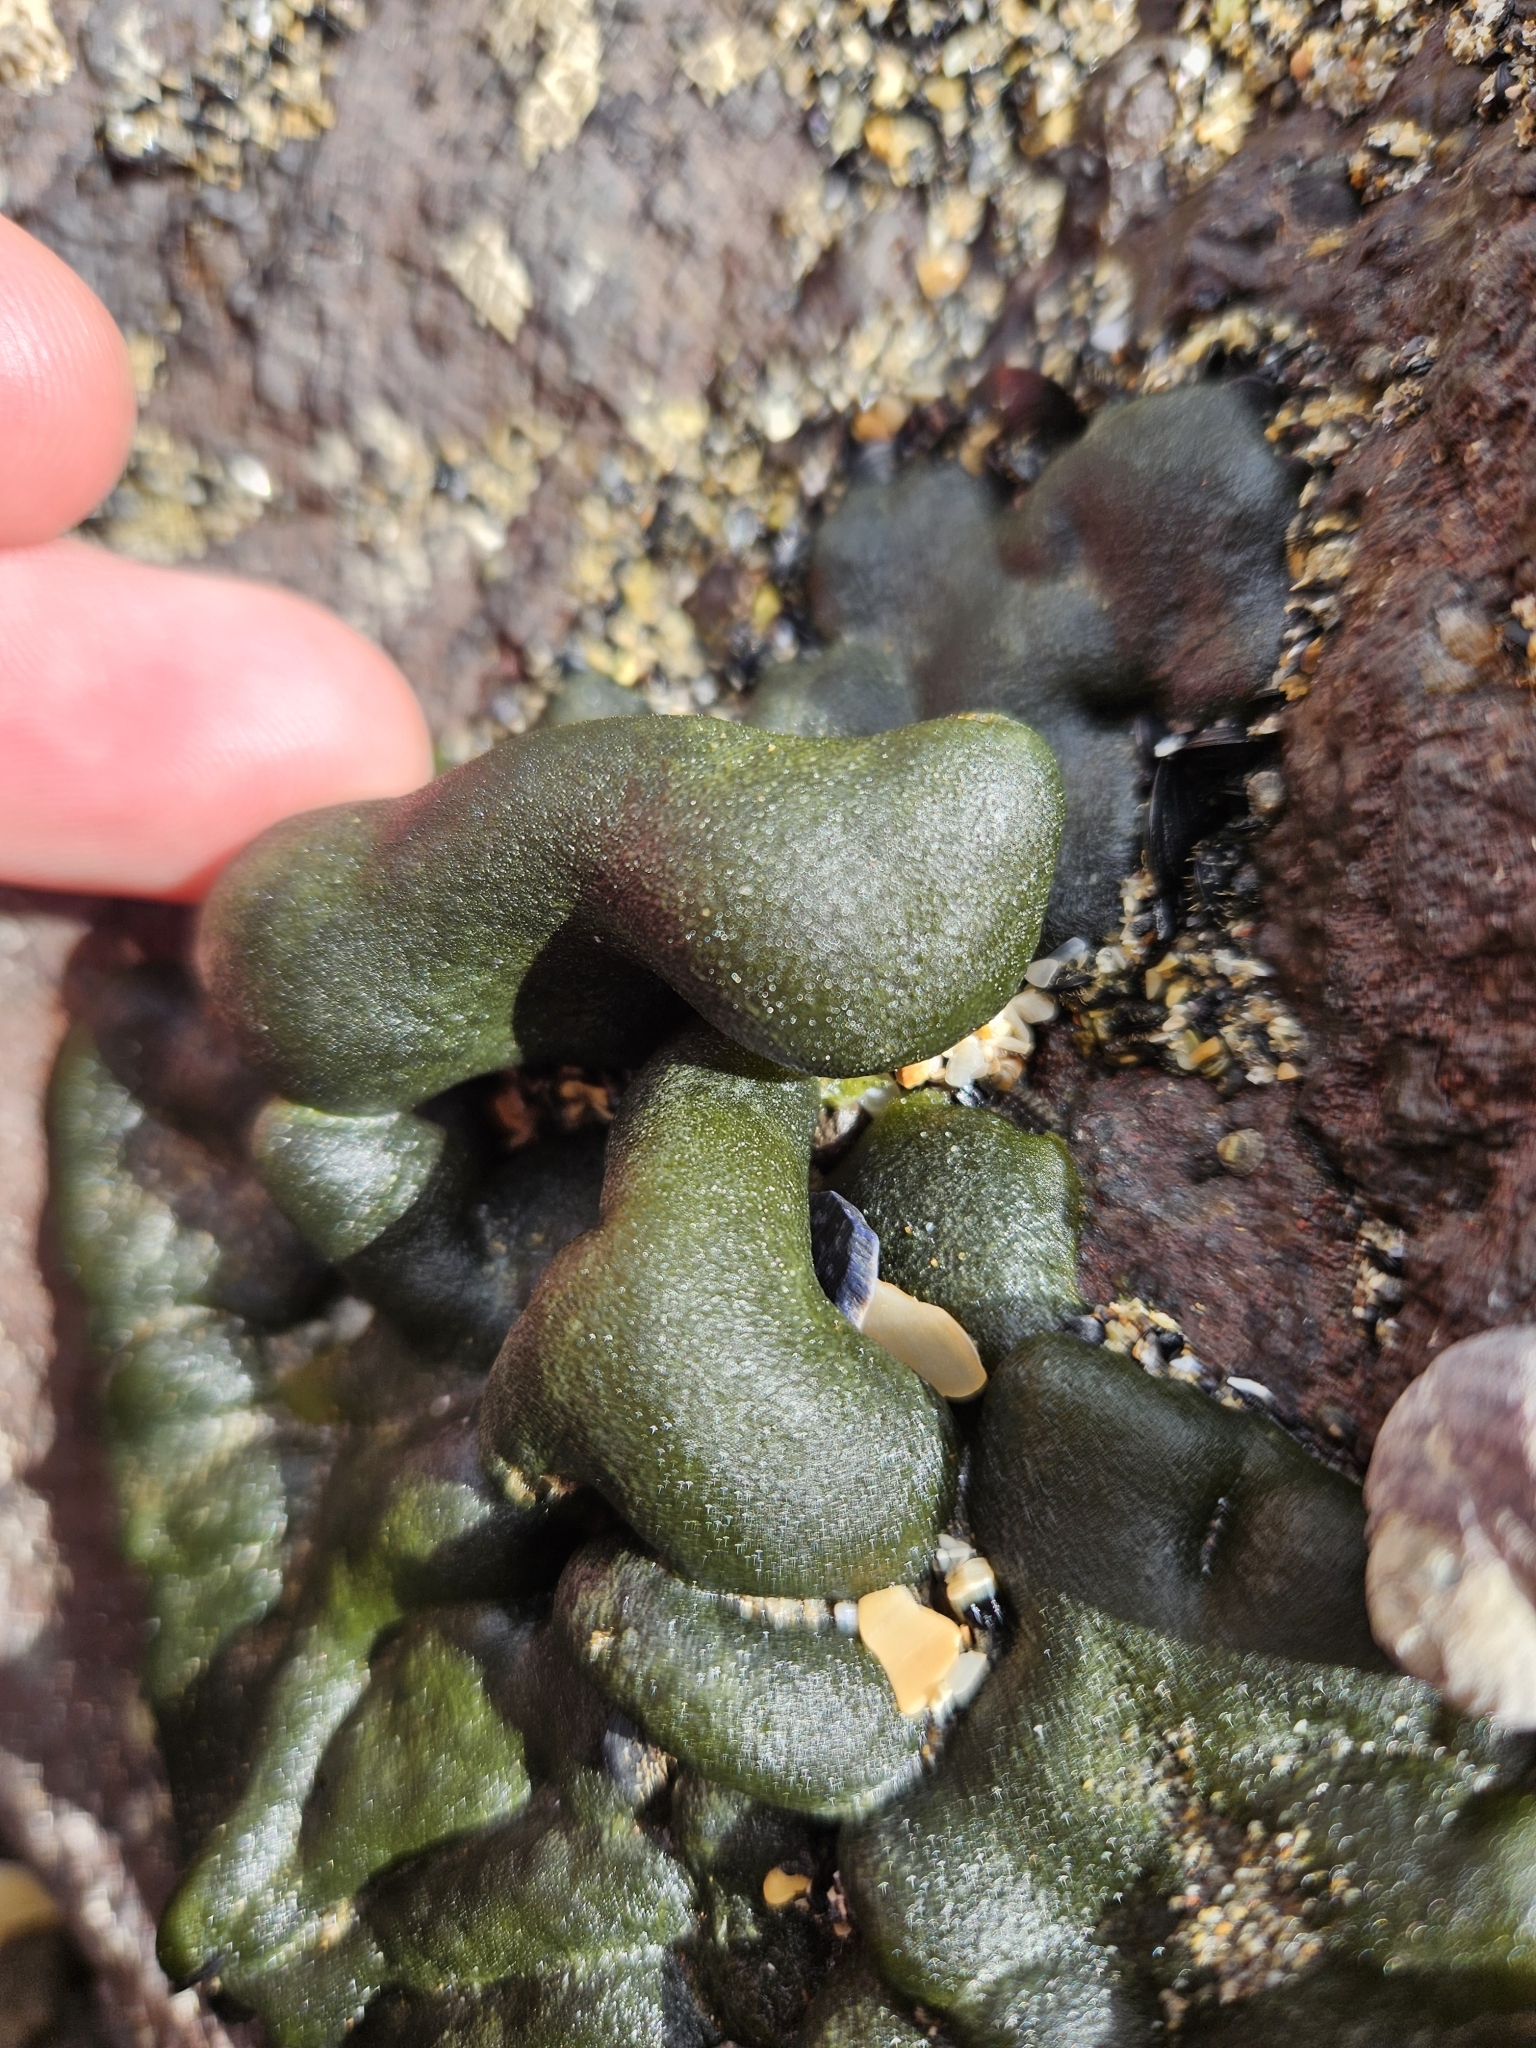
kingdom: Plantae
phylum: Chlorophyta
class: Ulvophyceae
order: Bryopsidales
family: Codiaceae
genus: Codium
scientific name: Codium convolutum
